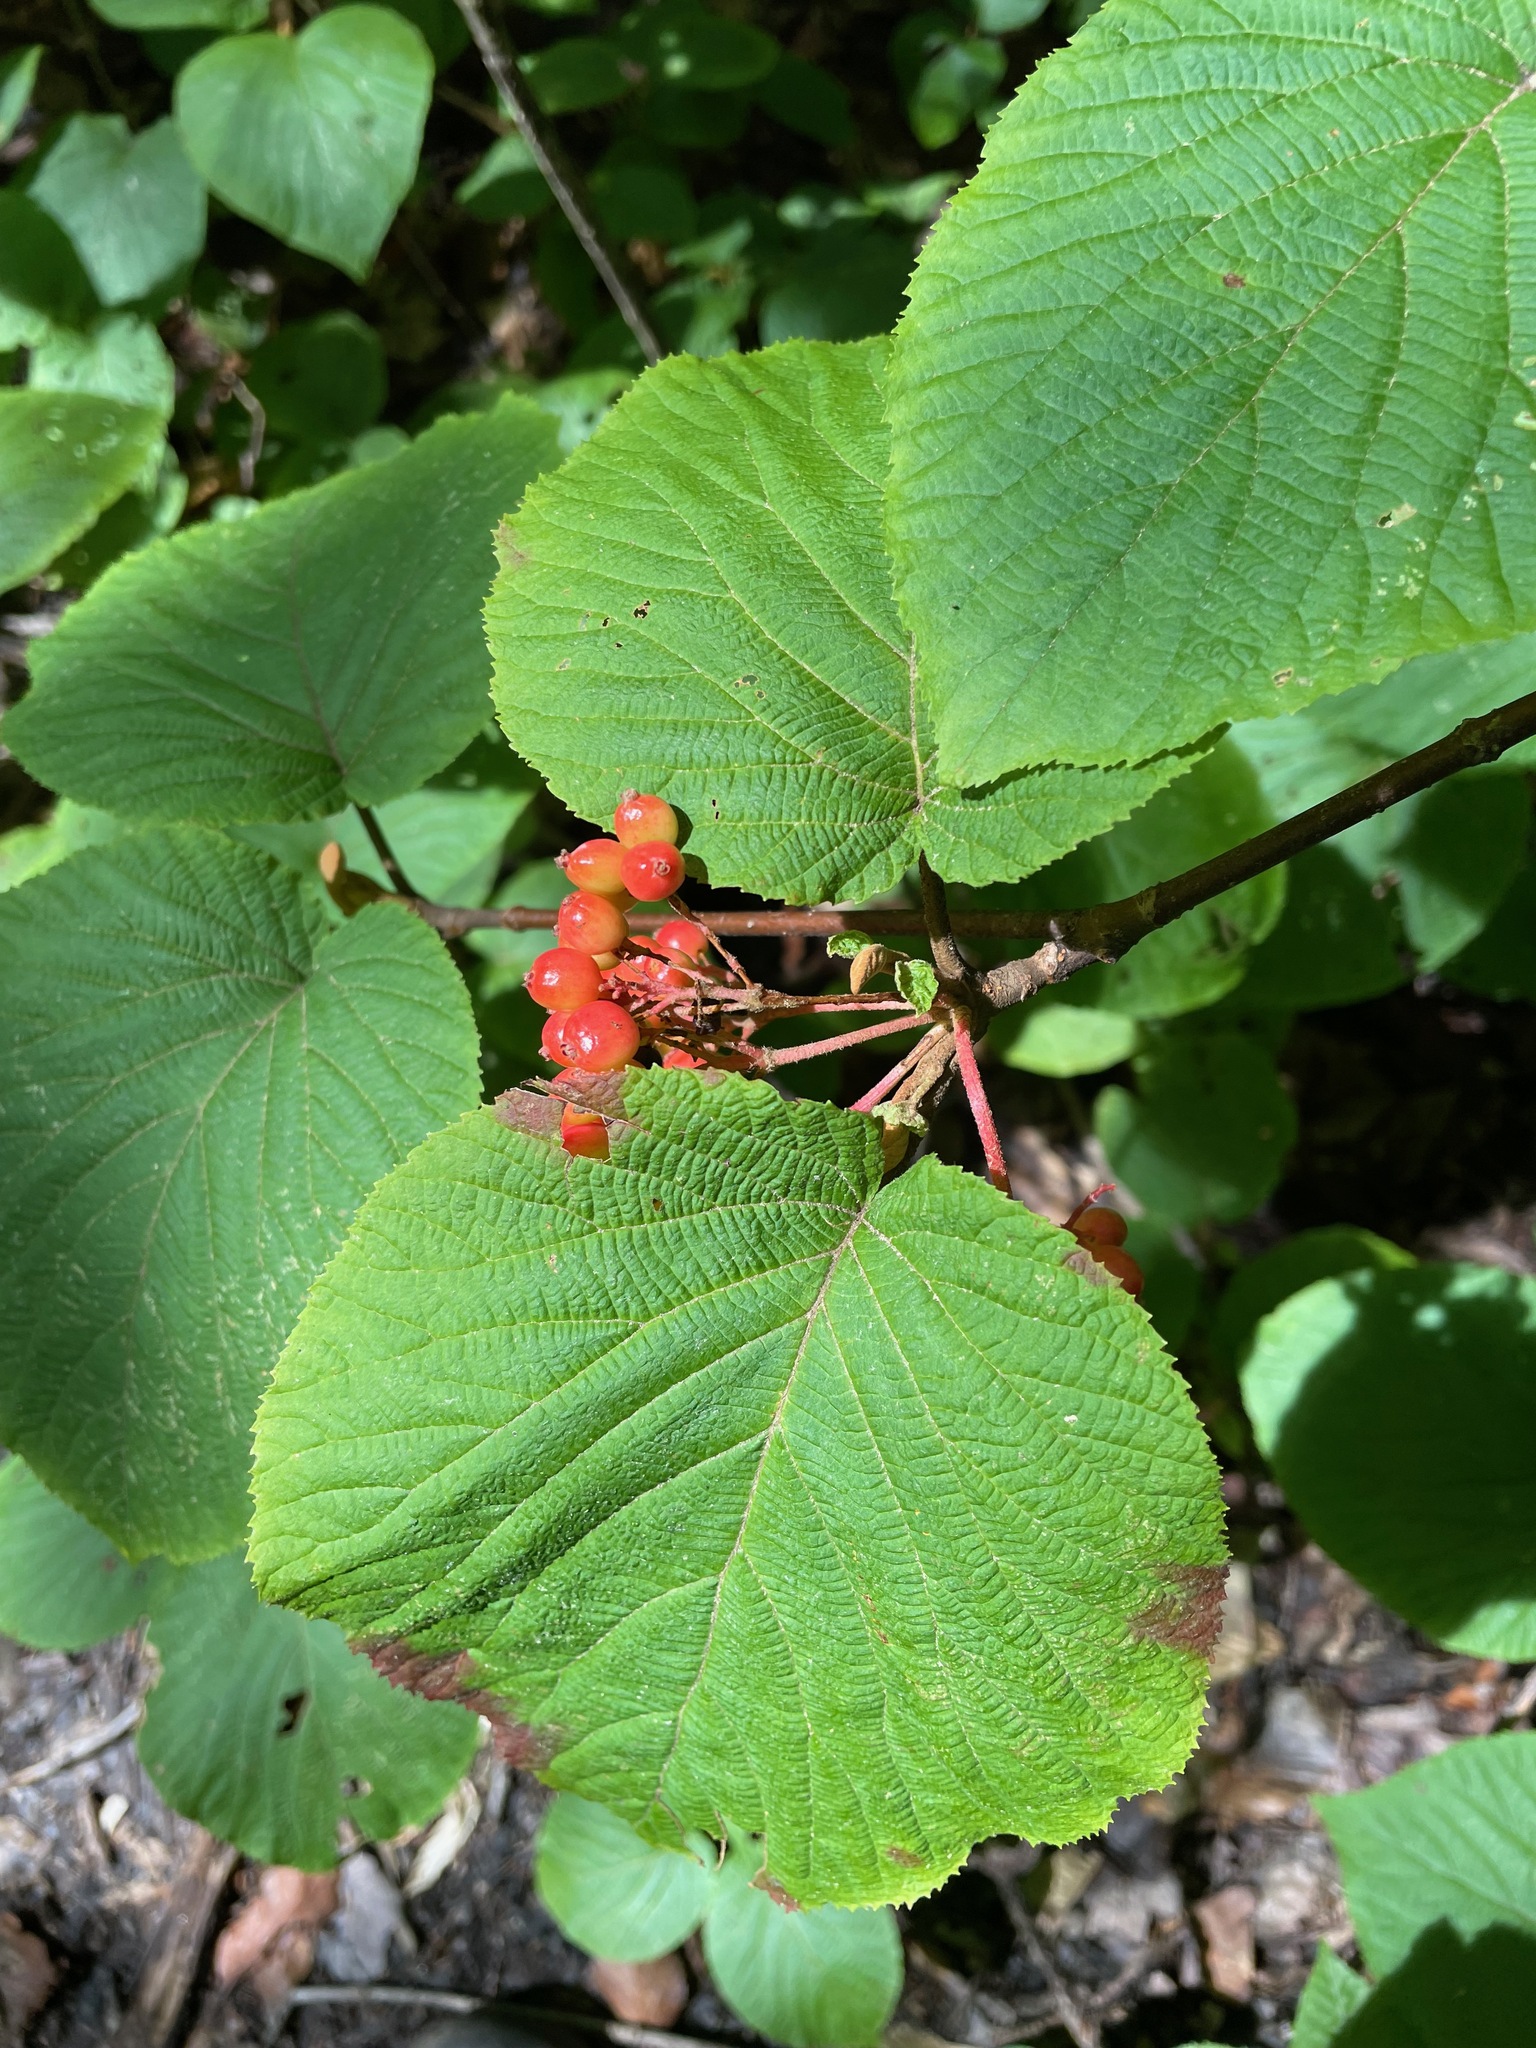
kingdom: Plantae
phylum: Tracheophyta
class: Magnoliopsida
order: Dipsacales
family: Viburnaceae
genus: Viburnum
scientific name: Viburnum lantanoides
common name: Hobblebush
